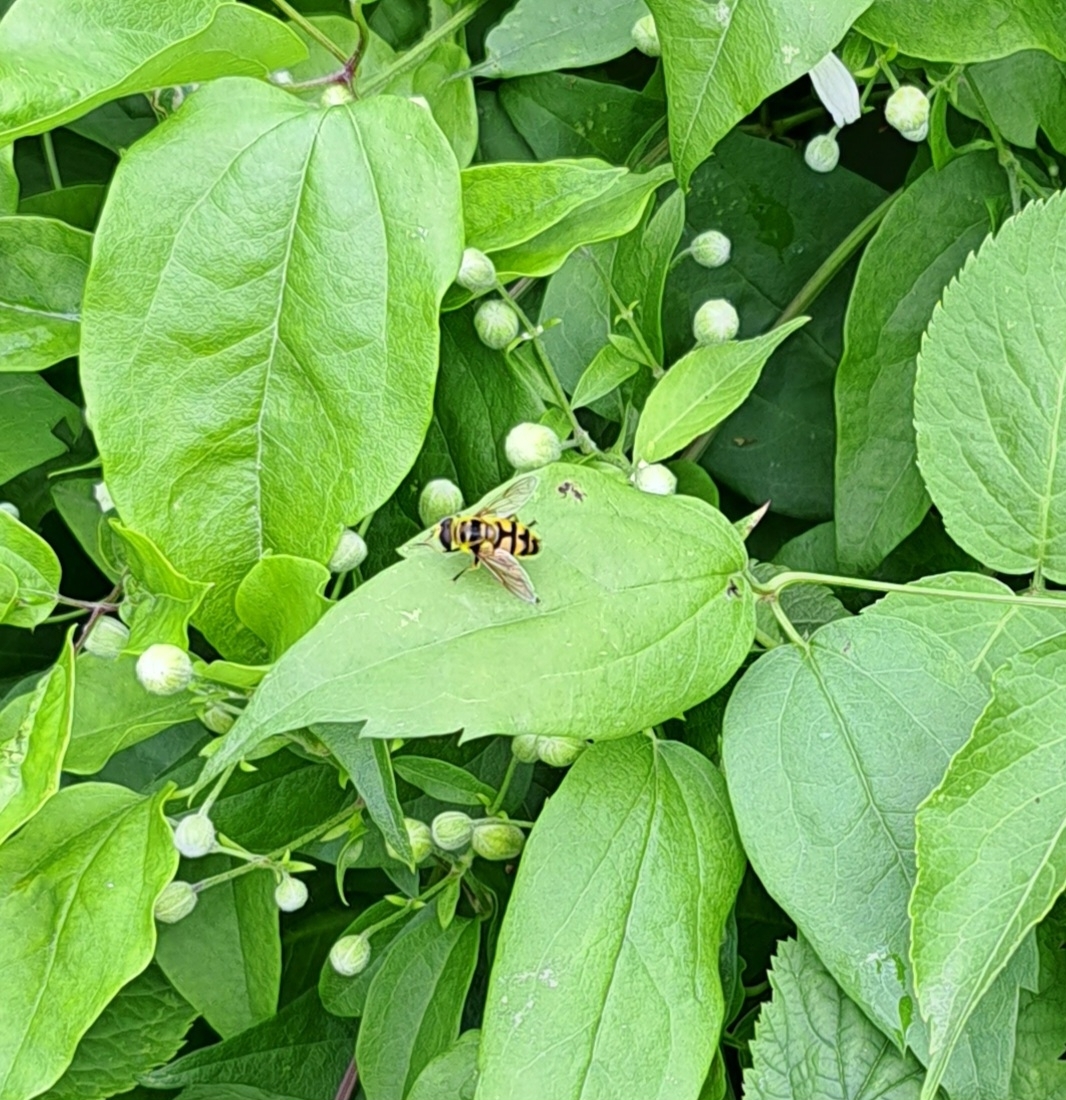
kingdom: Animalia
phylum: Arthropoda
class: Insecta
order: Diptera
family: Syrphidae
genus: Myathropa
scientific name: Myathropa florea
